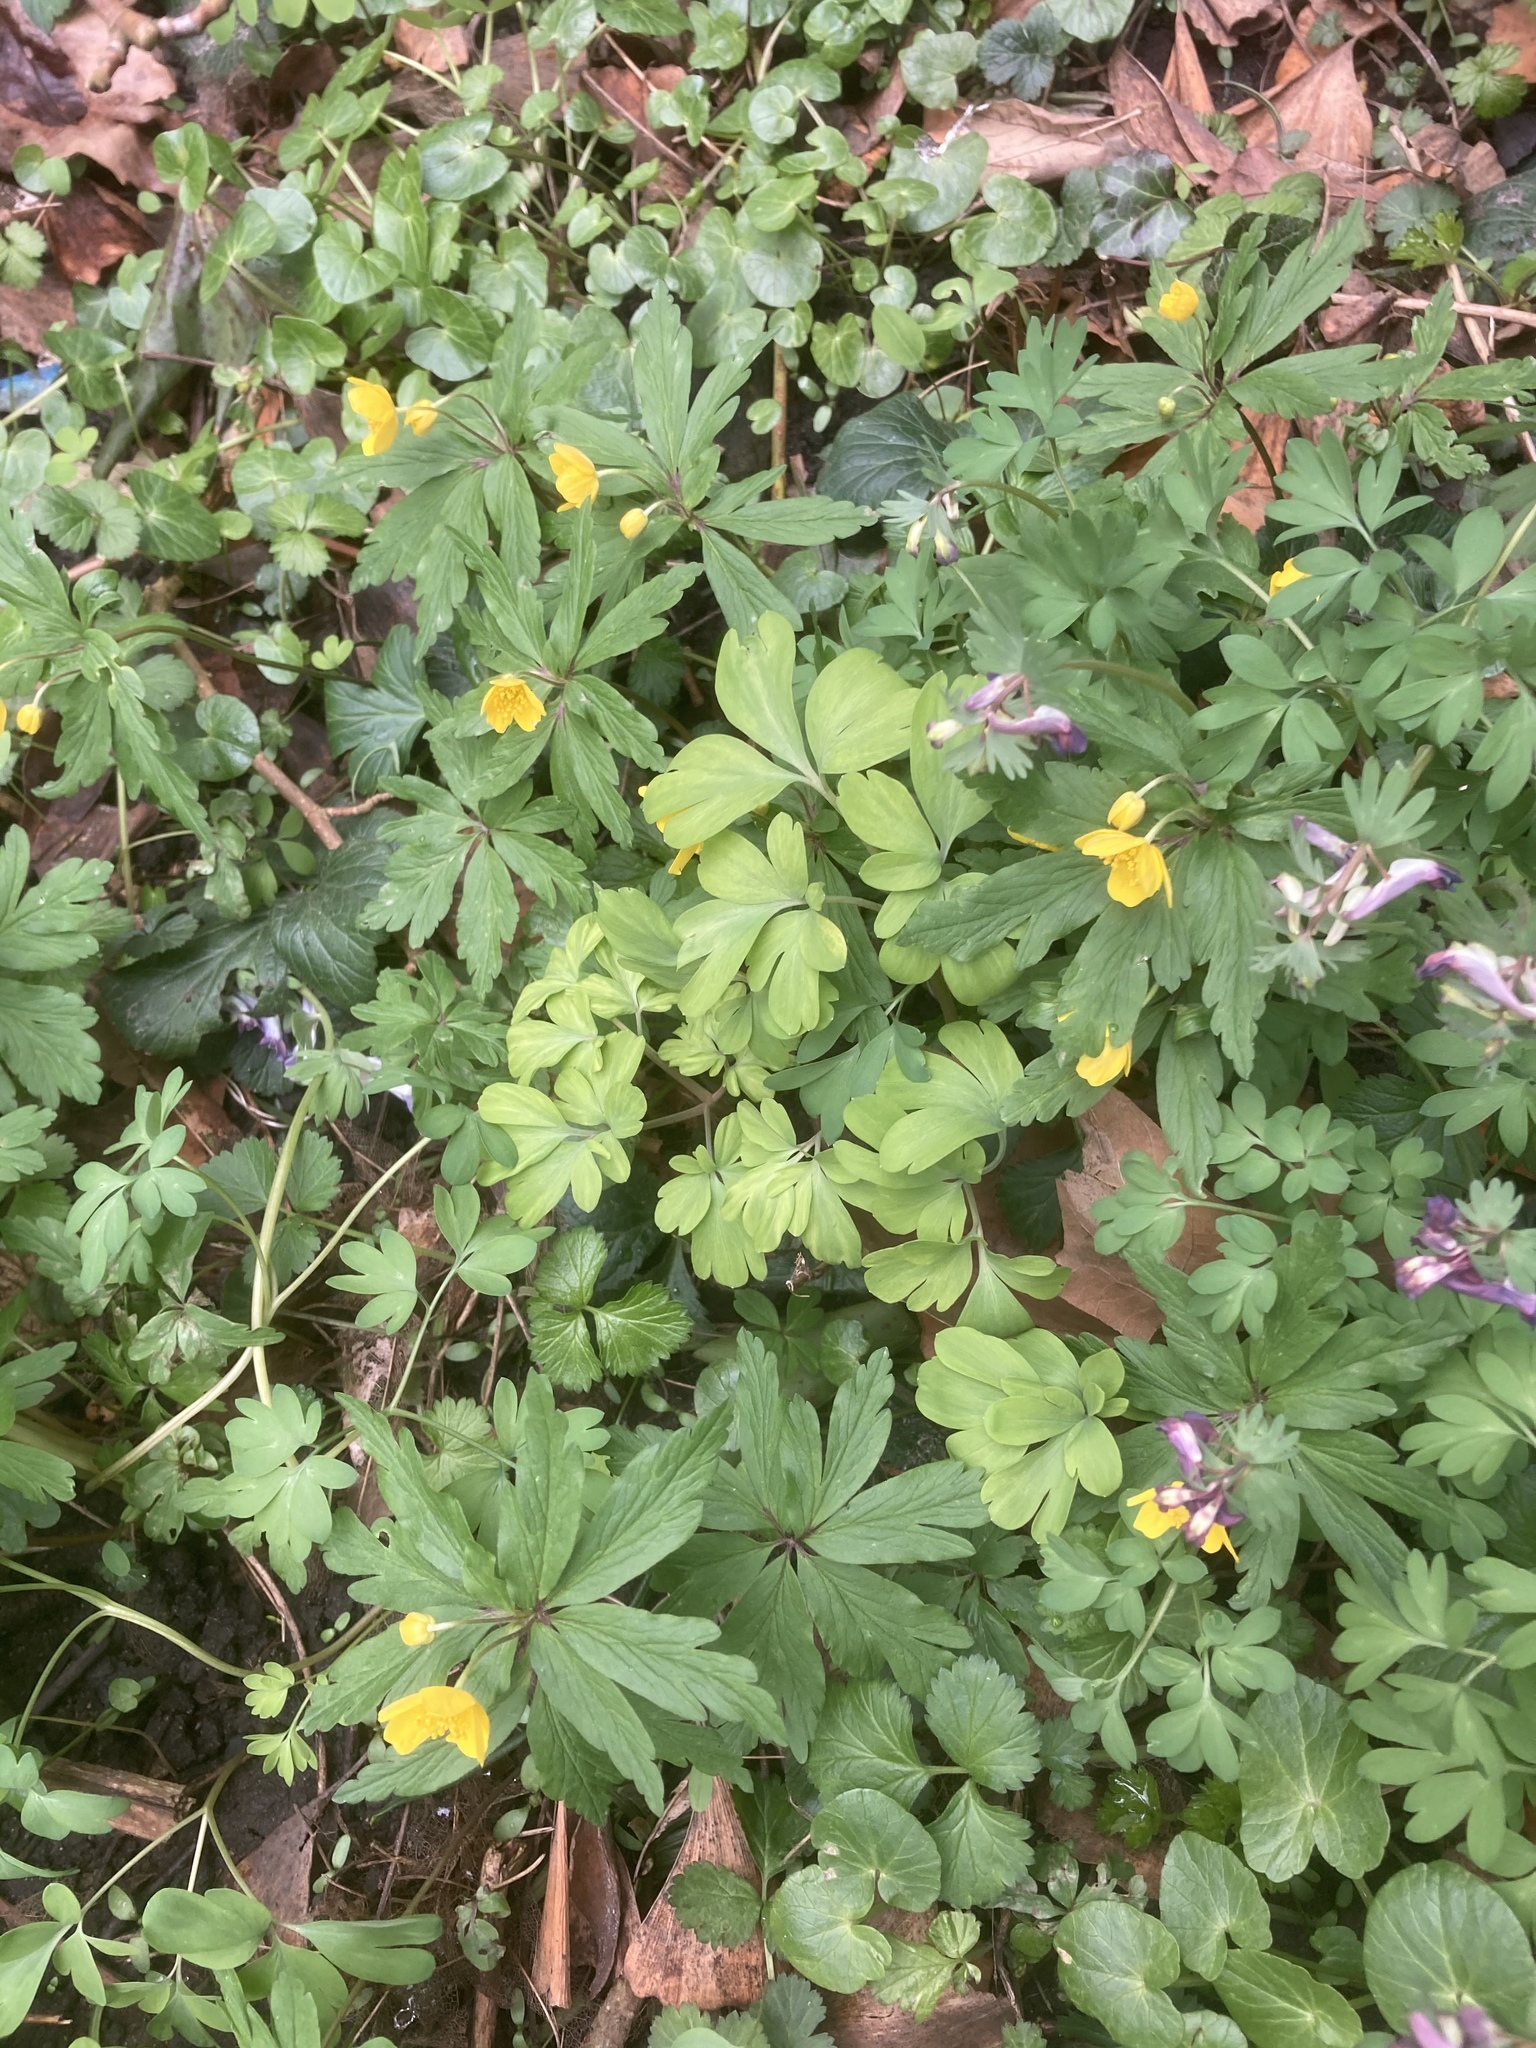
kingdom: Plantae
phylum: Tracheophyta
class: Magnoliopsida
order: Ranunculales
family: Papaveraceae
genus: Corydalis
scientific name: Corydalis solida
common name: Bird-in-a-bush
